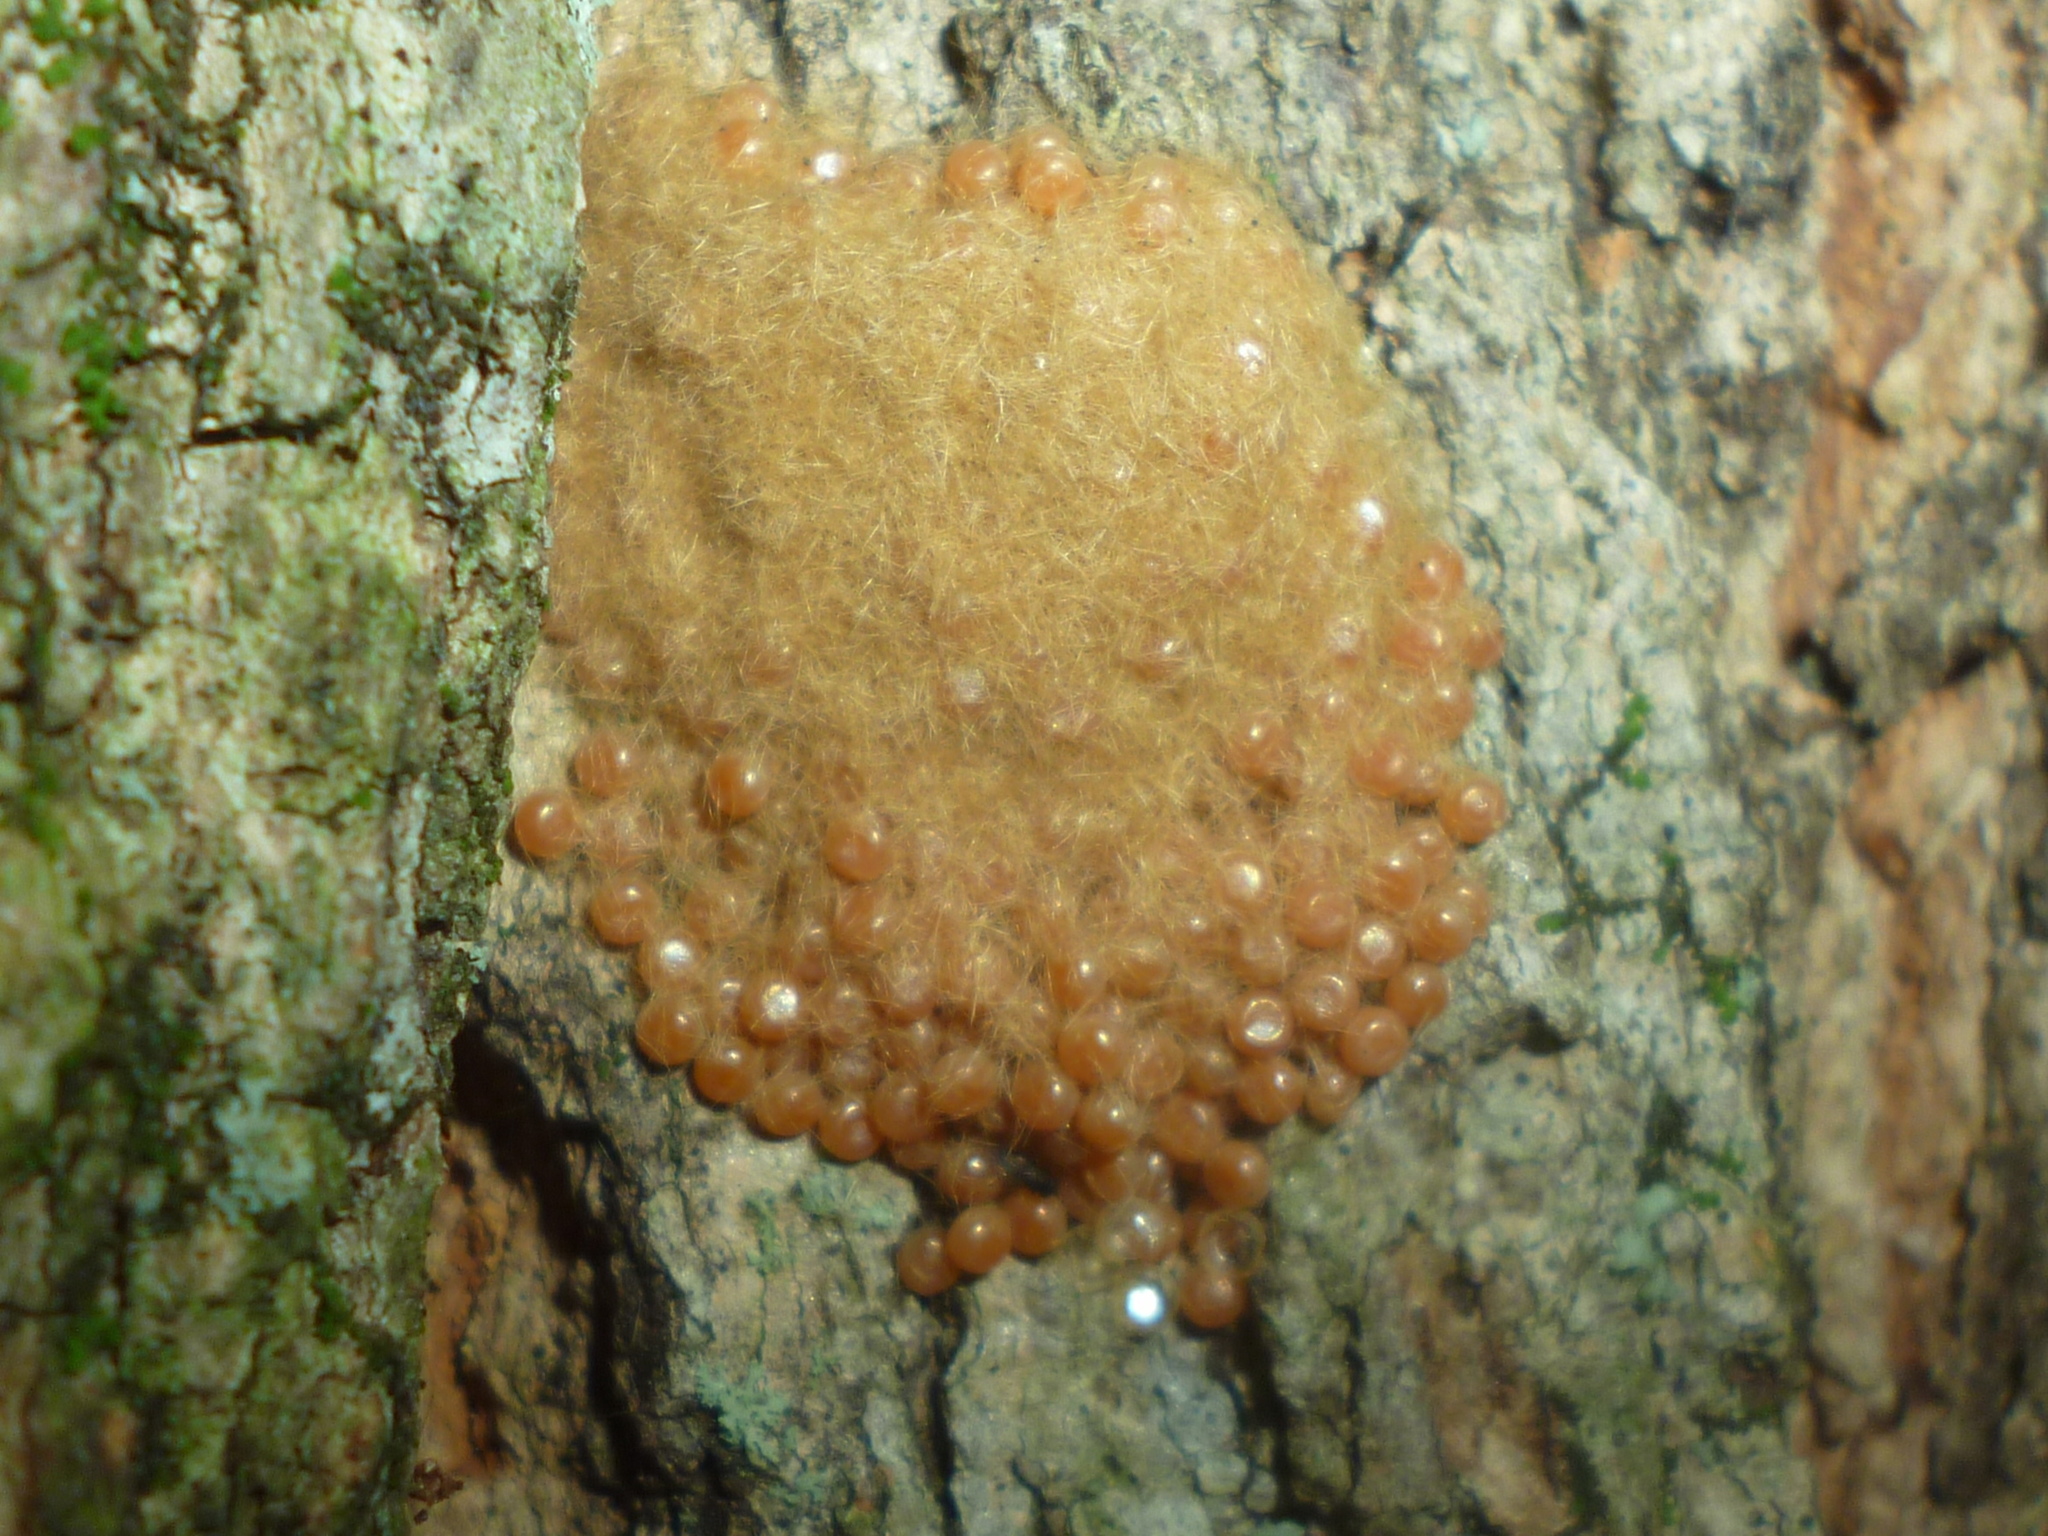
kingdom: Animalia
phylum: Arthropoda
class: Insecta
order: Lepidoptera
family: Erebidae
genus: Lymantria
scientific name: Lymantria dispar
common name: Gypsy moth
